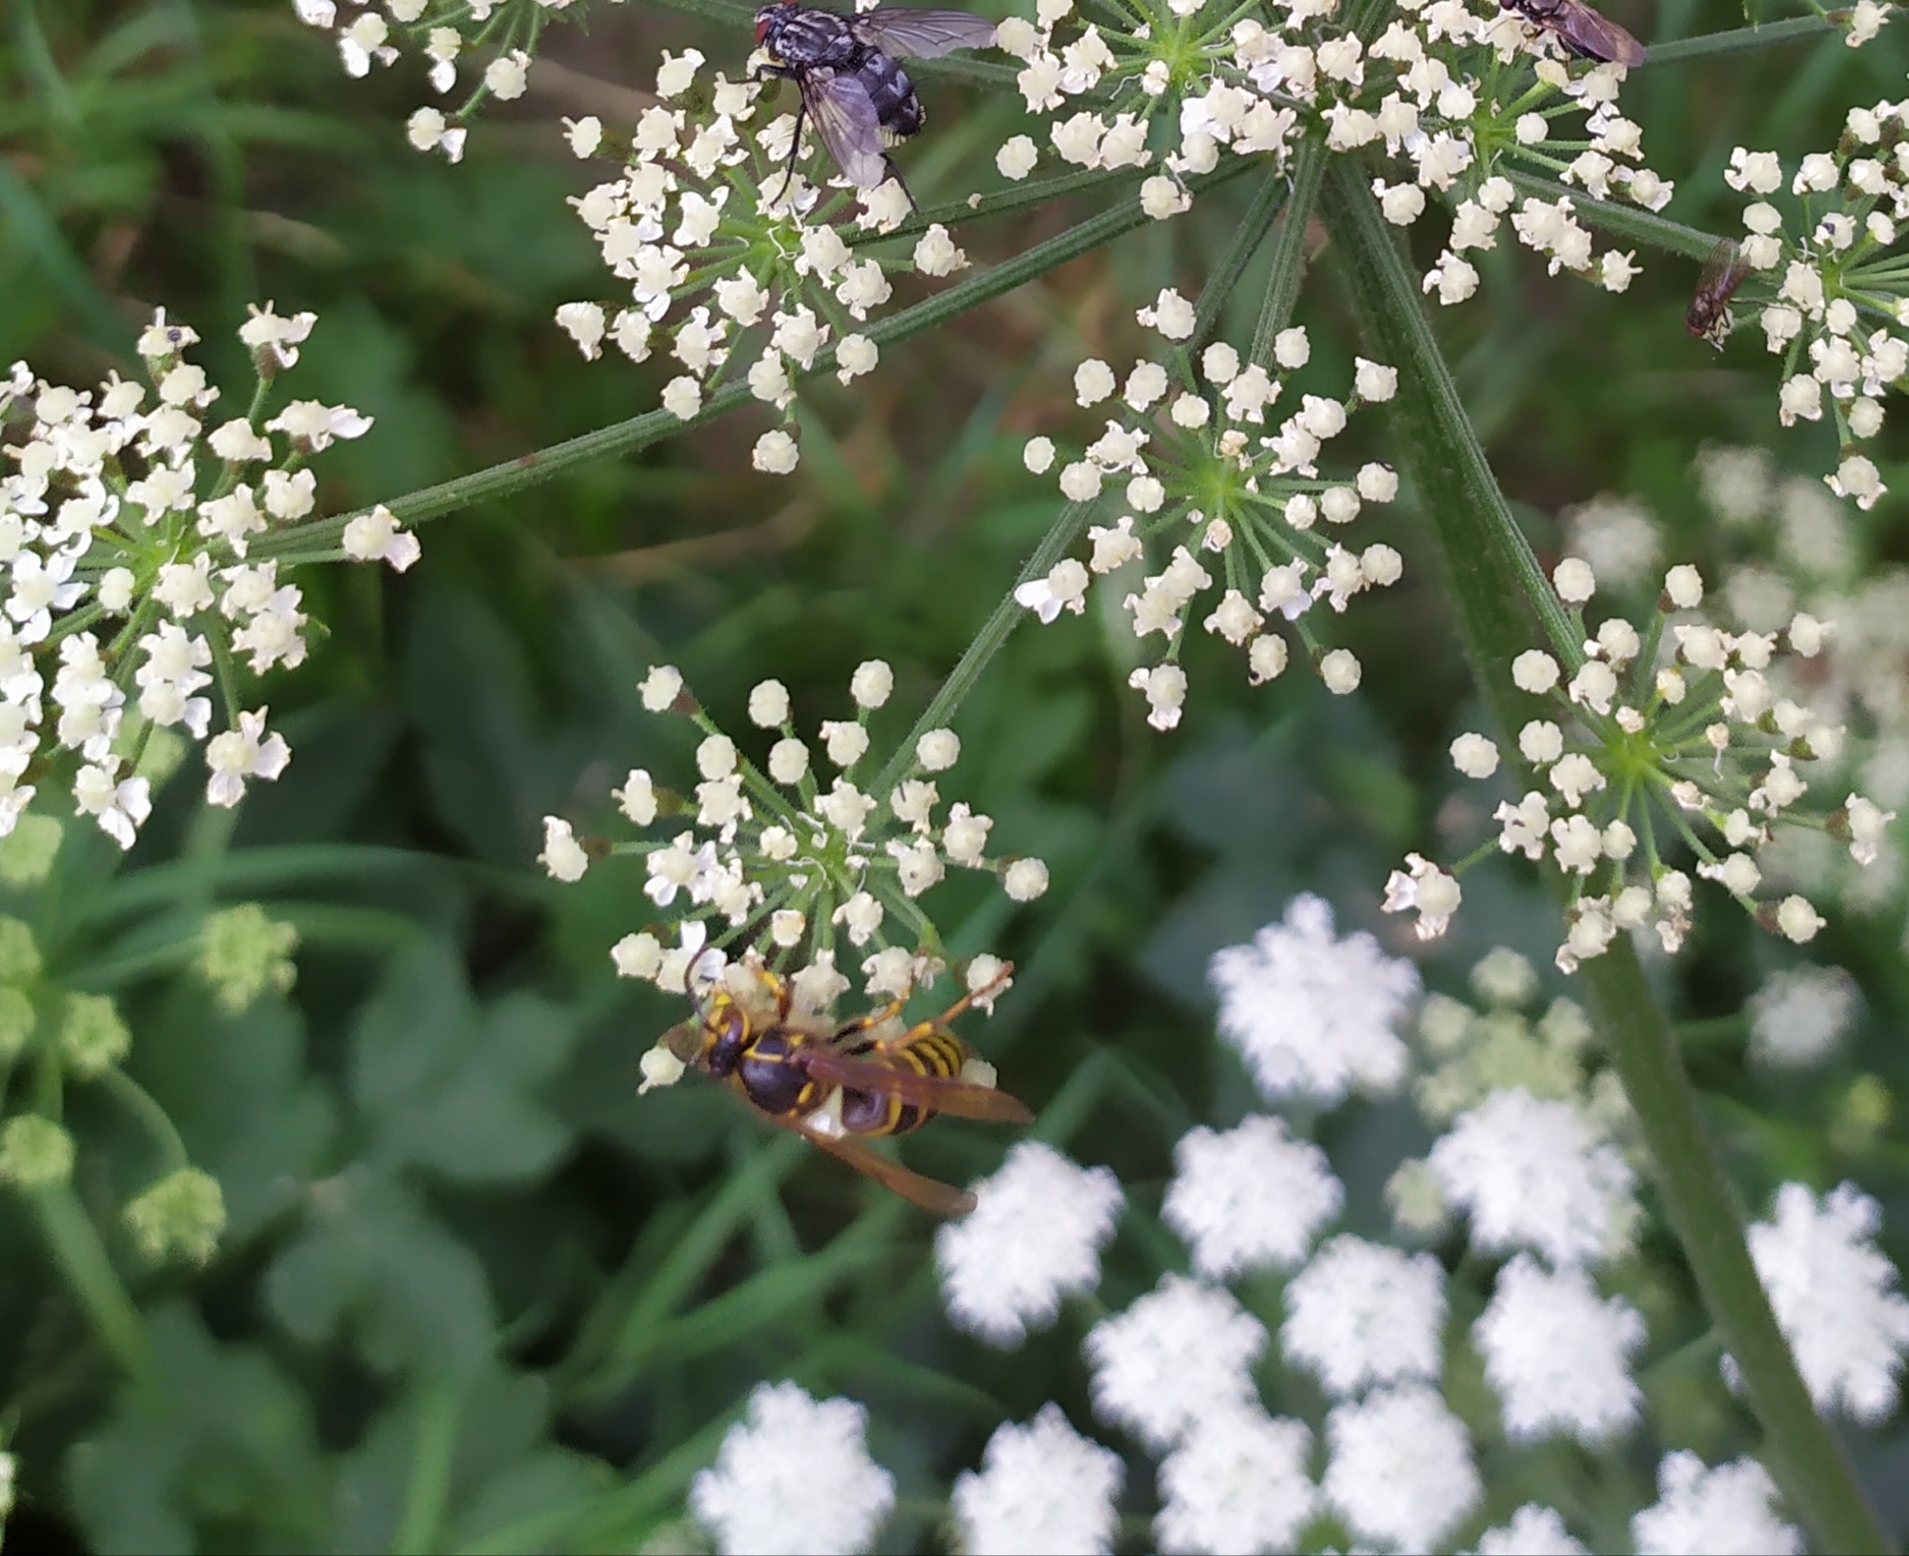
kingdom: Animalia
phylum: Arthropoda
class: Insecta
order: Hymenoptera
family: Vespidae
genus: Dolichovespula
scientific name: Dolichovespula media
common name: Median wasp
